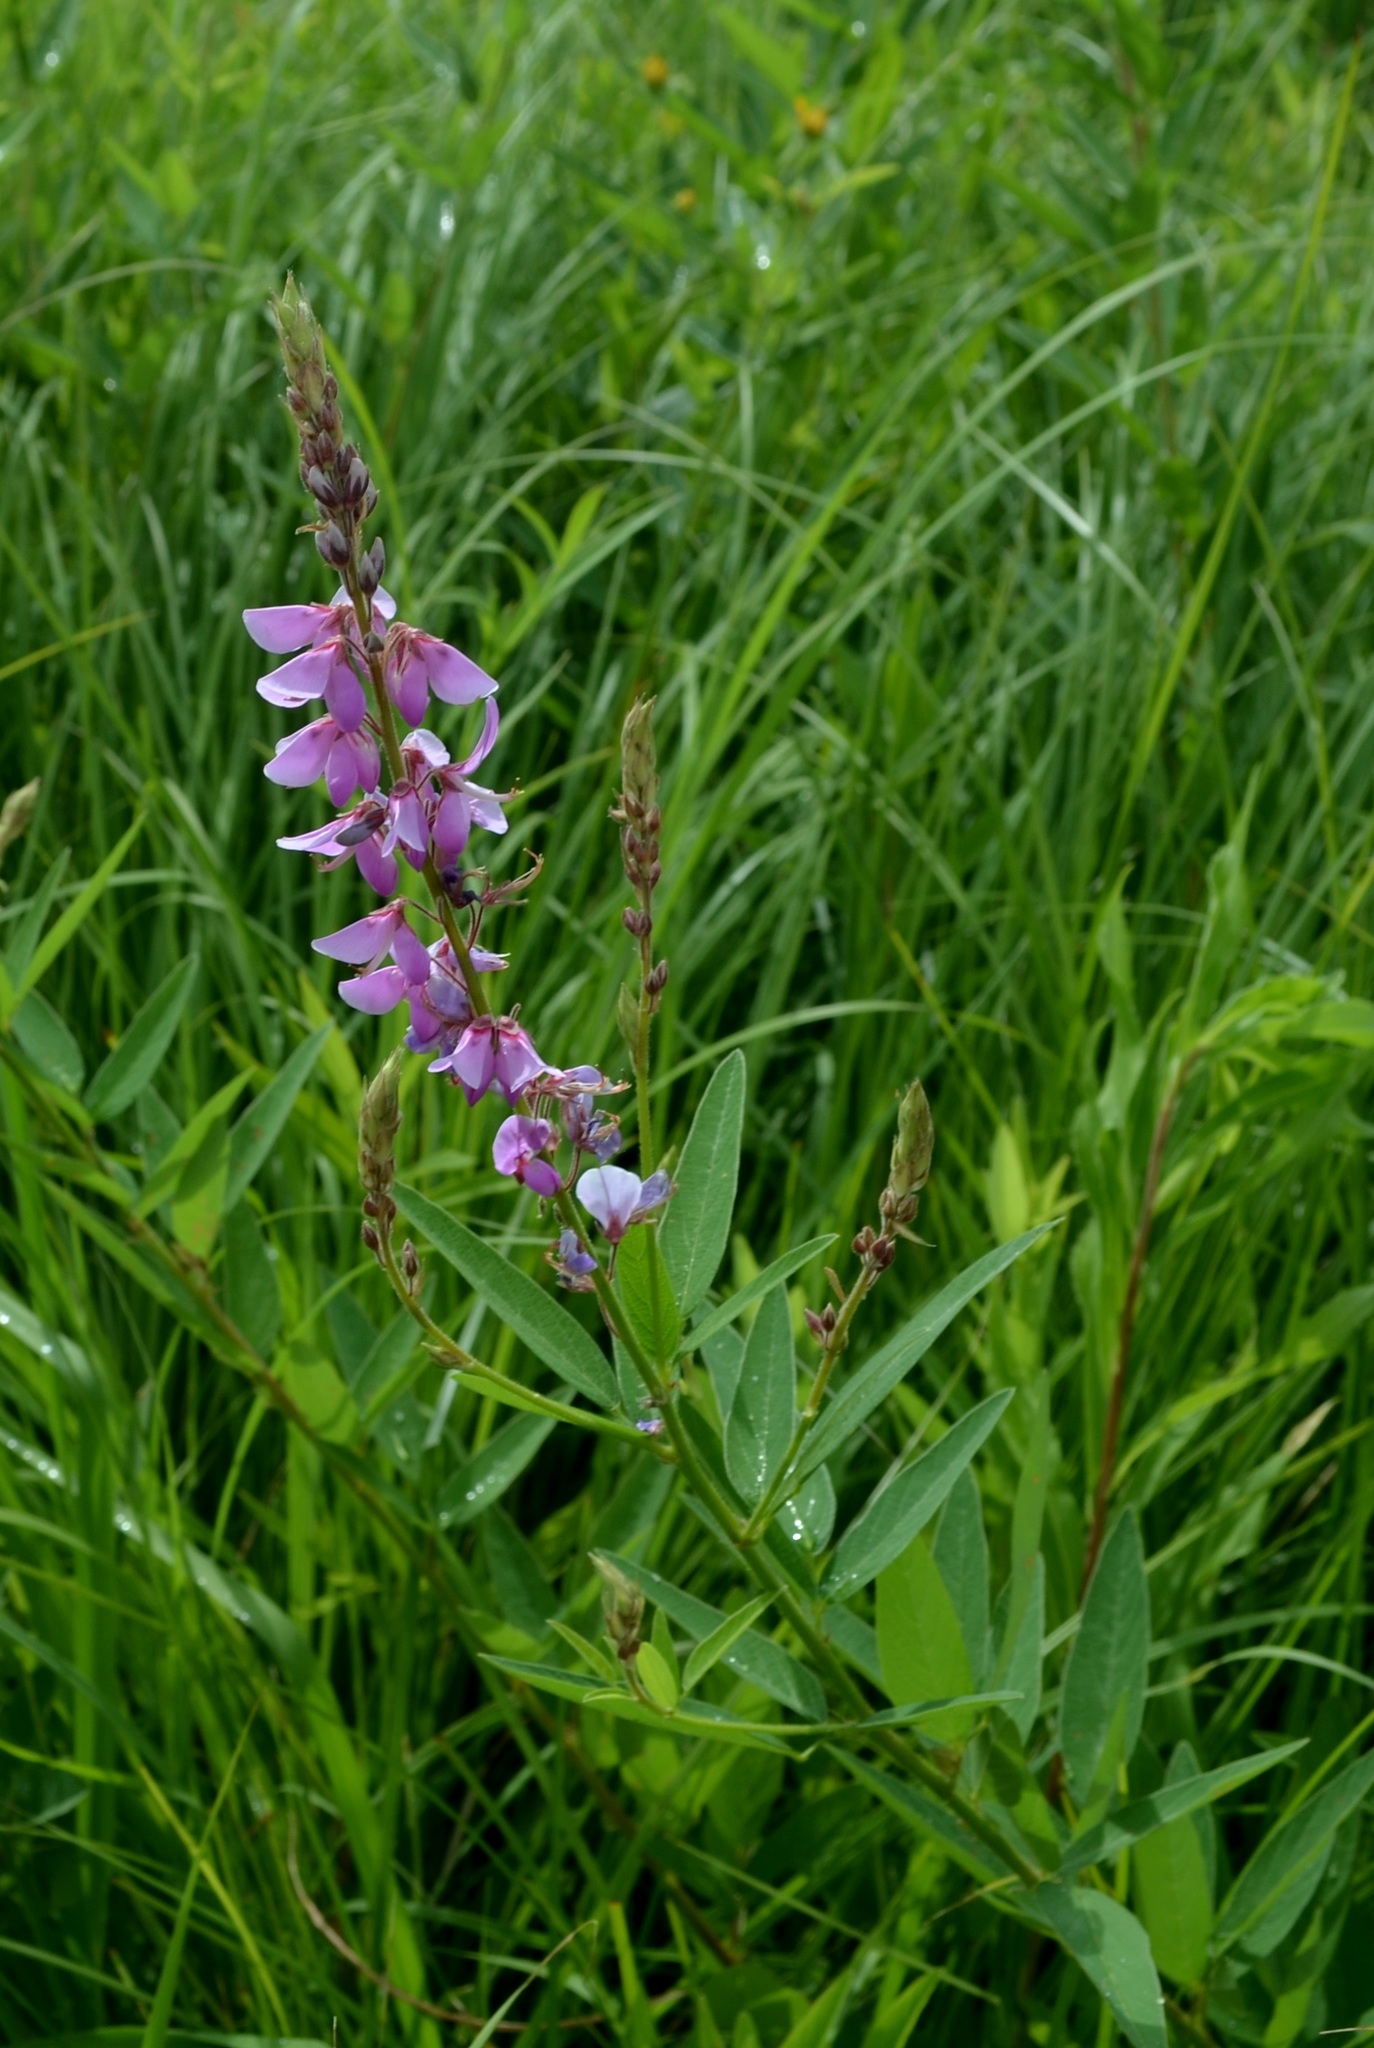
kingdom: Plantae
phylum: Tracheophyta
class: Magnoliopsida
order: Fabales
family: Fabaceae
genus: Desmodium
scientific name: Desmodium canadense
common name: Canada tick-trefoil
